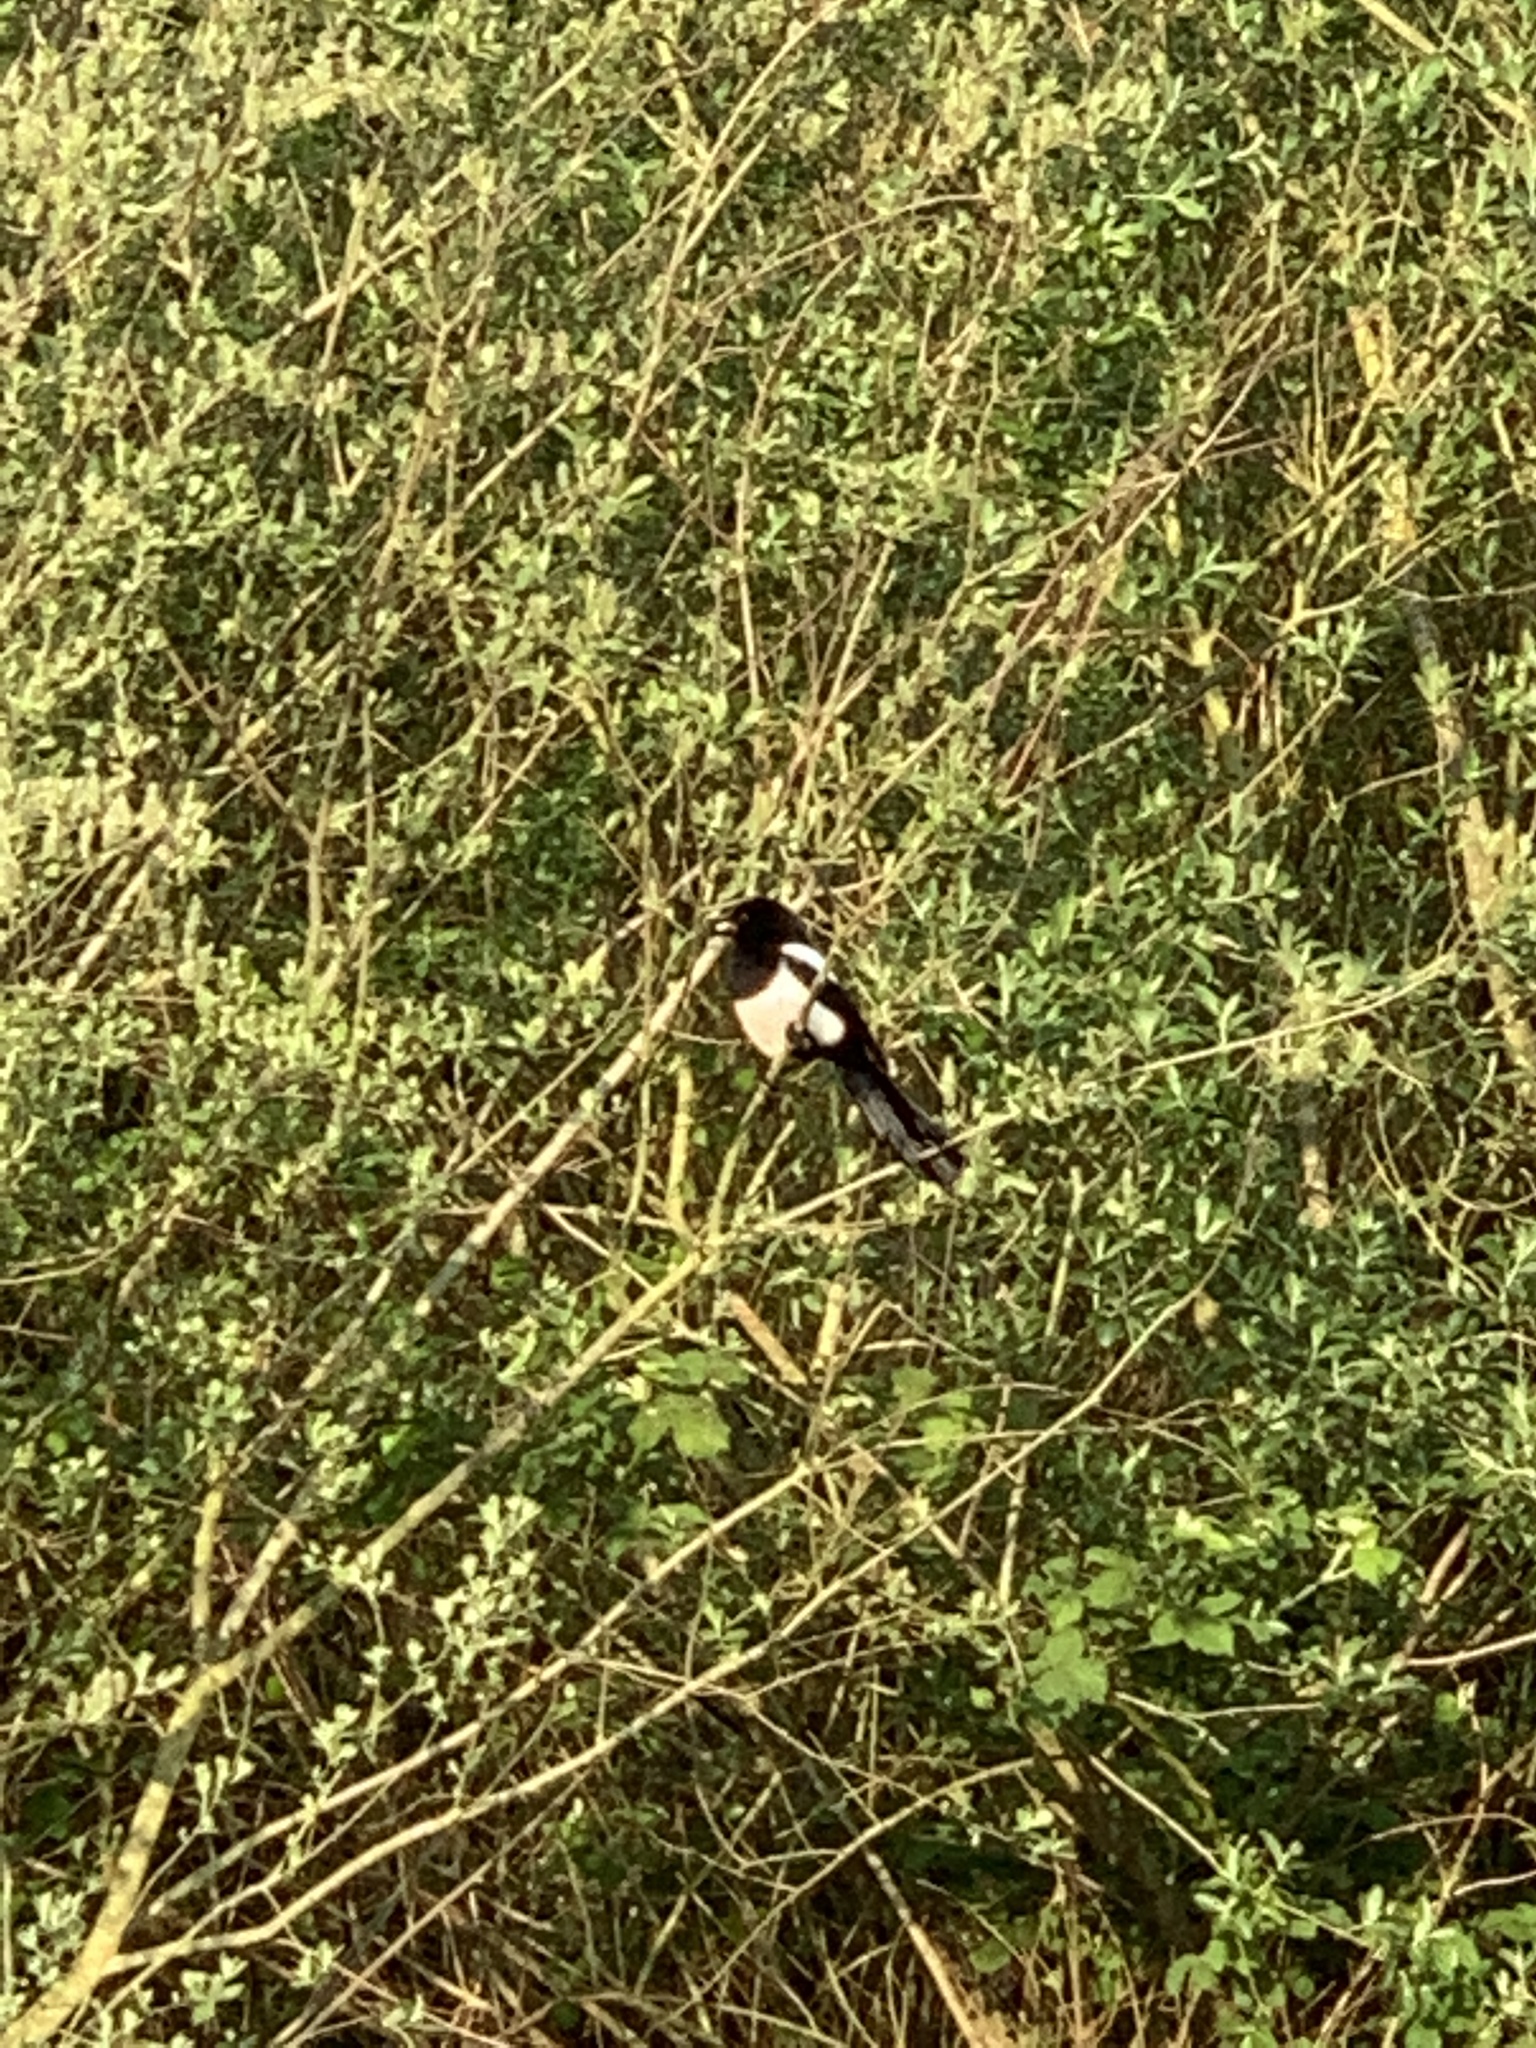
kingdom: Animalia
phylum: Chordata
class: Aves
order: Passeriformes
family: Corvidae
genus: Pica
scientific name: Pica pica
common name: Eurasian magpie
